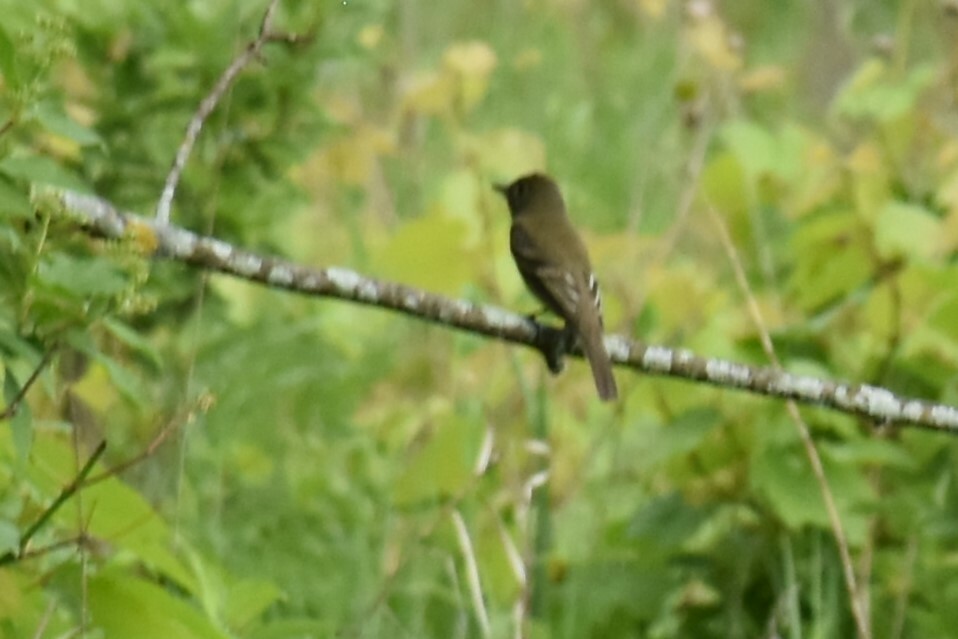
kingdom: Animalia
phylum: Chordata
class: Aves
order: Passeriformes
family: Tyrannidae
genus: Empidonax
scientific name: Empidonax traillii
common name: Willow flycatcher
